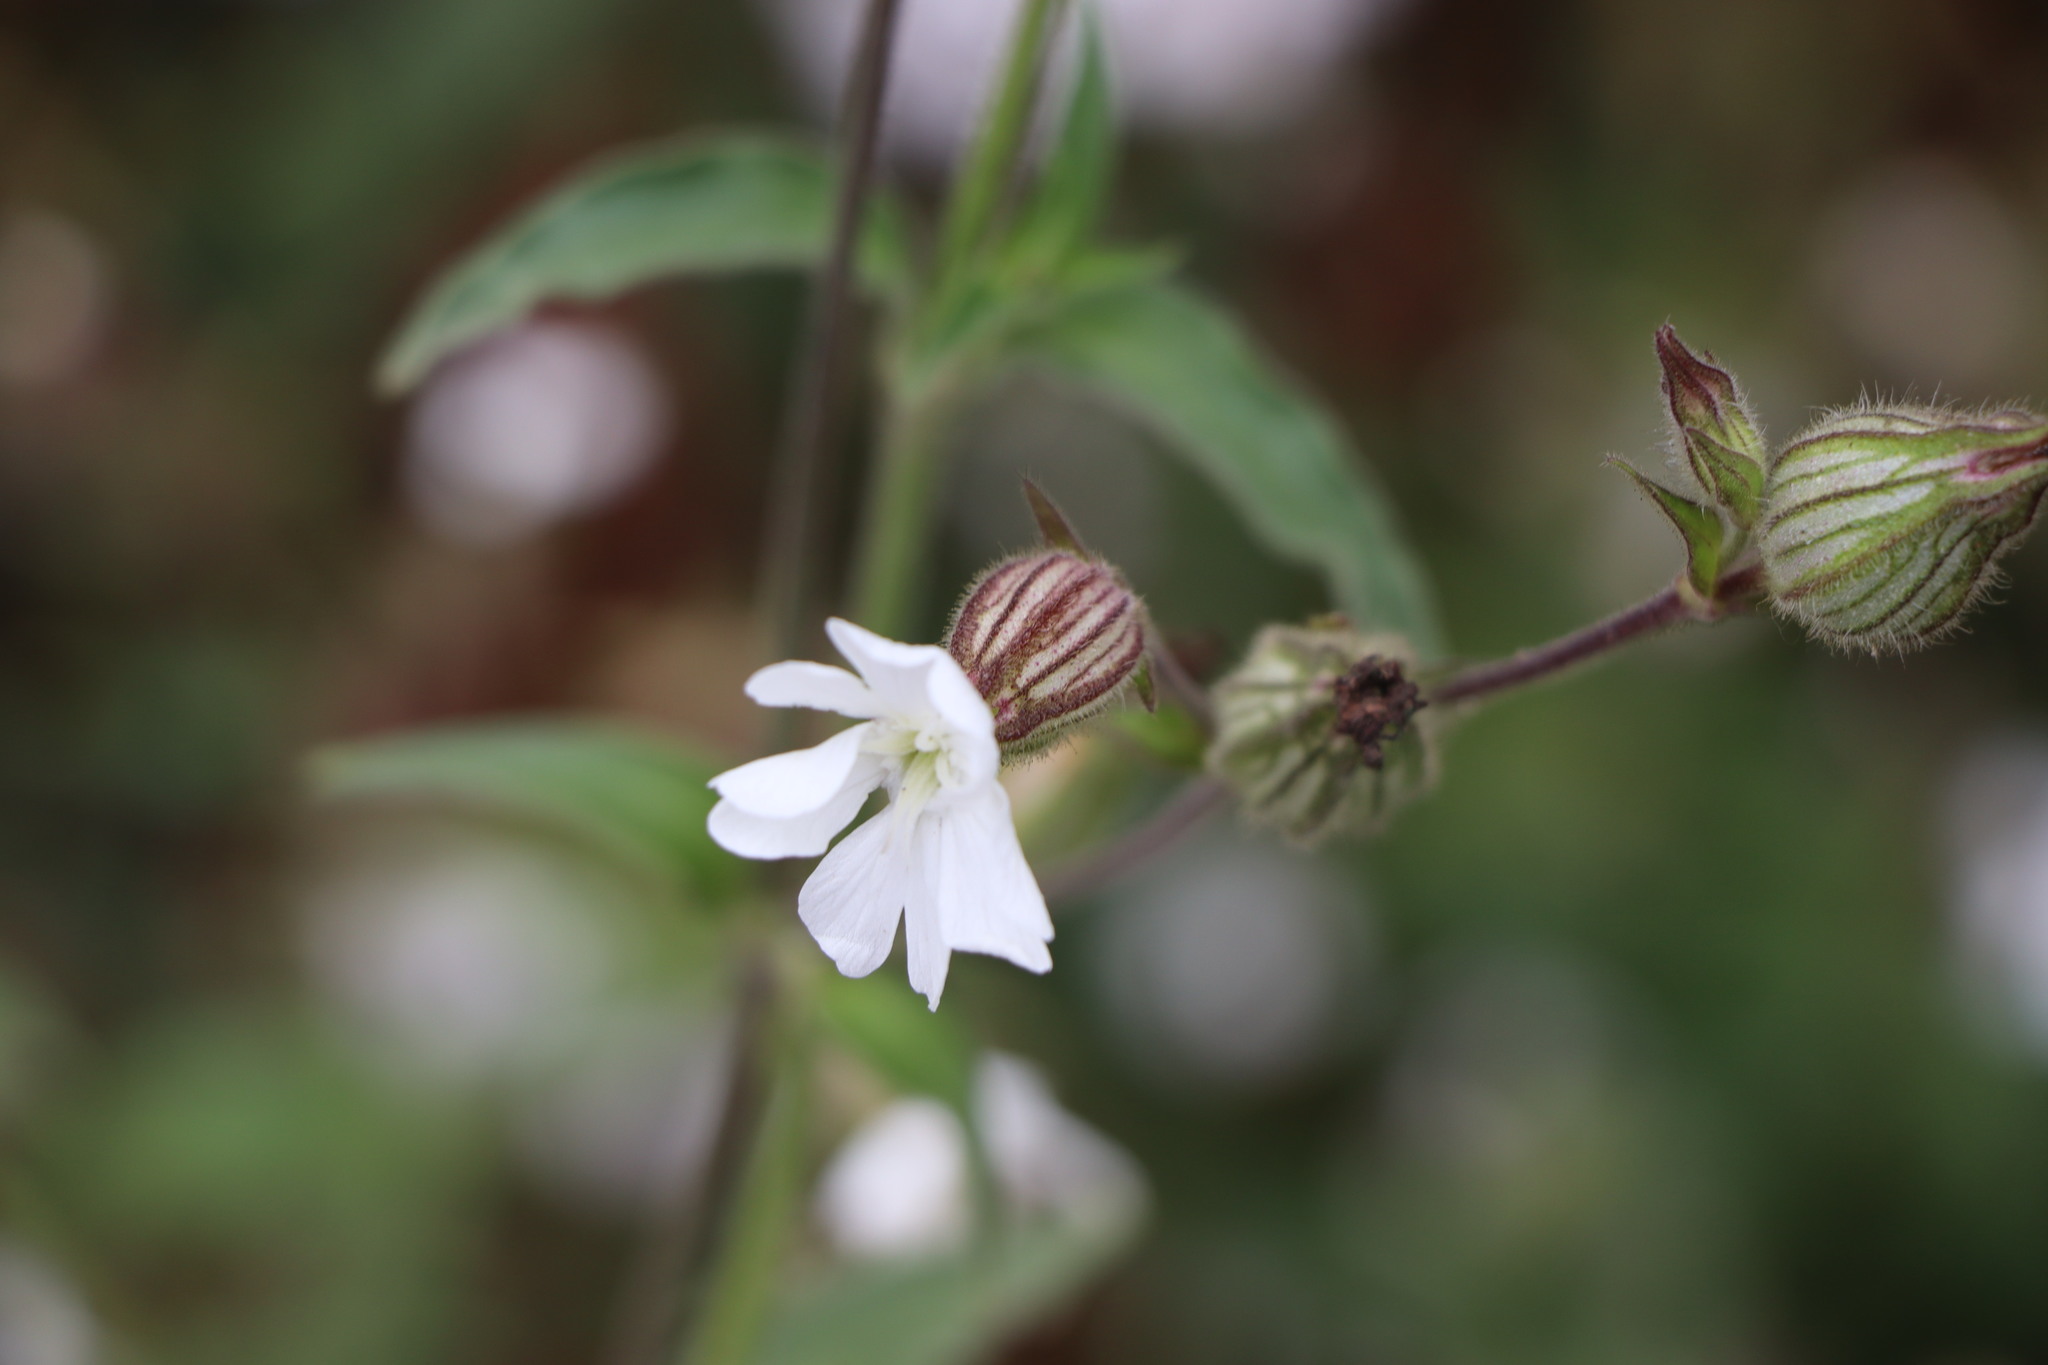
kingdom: Plantae
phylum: Tracheophyta
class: Magnoliopsida
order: Caryophyllales
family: Caryophyllaceae
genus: Silene
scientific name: Silene latifolia
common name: White campion
